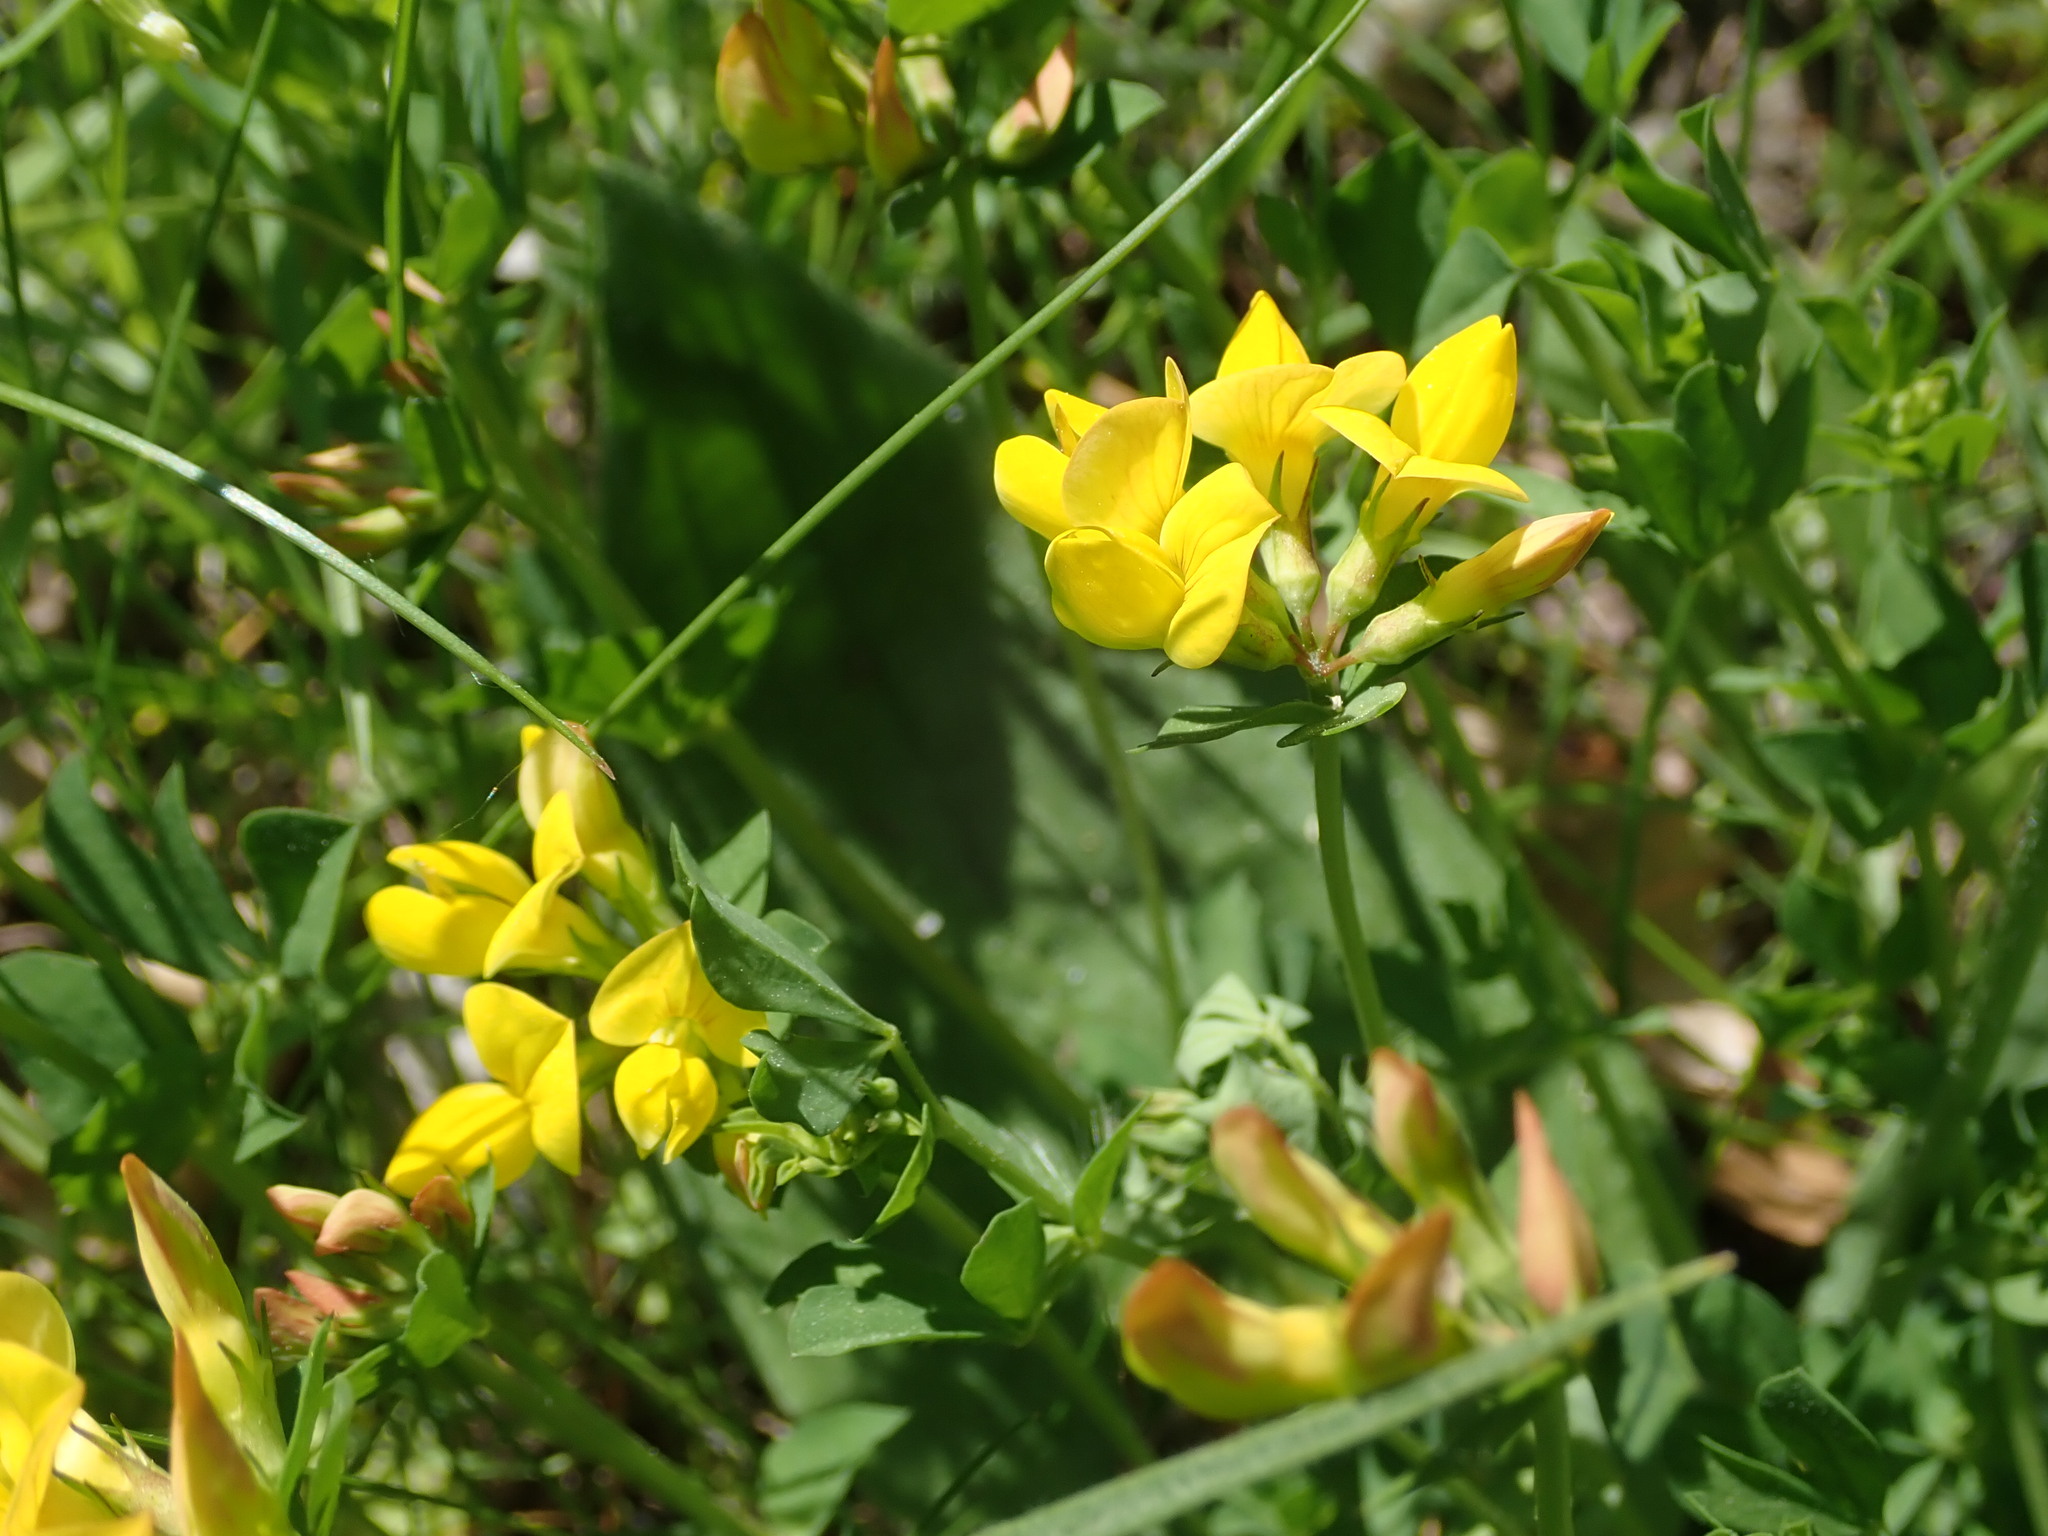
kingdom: Plantae
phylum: Tracheophyta
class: Magnoliopsida
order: Fabales
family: Fabaceae
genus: Lotus
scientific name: Lotus corniculatus
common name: Common bird's-foot-trefoil
